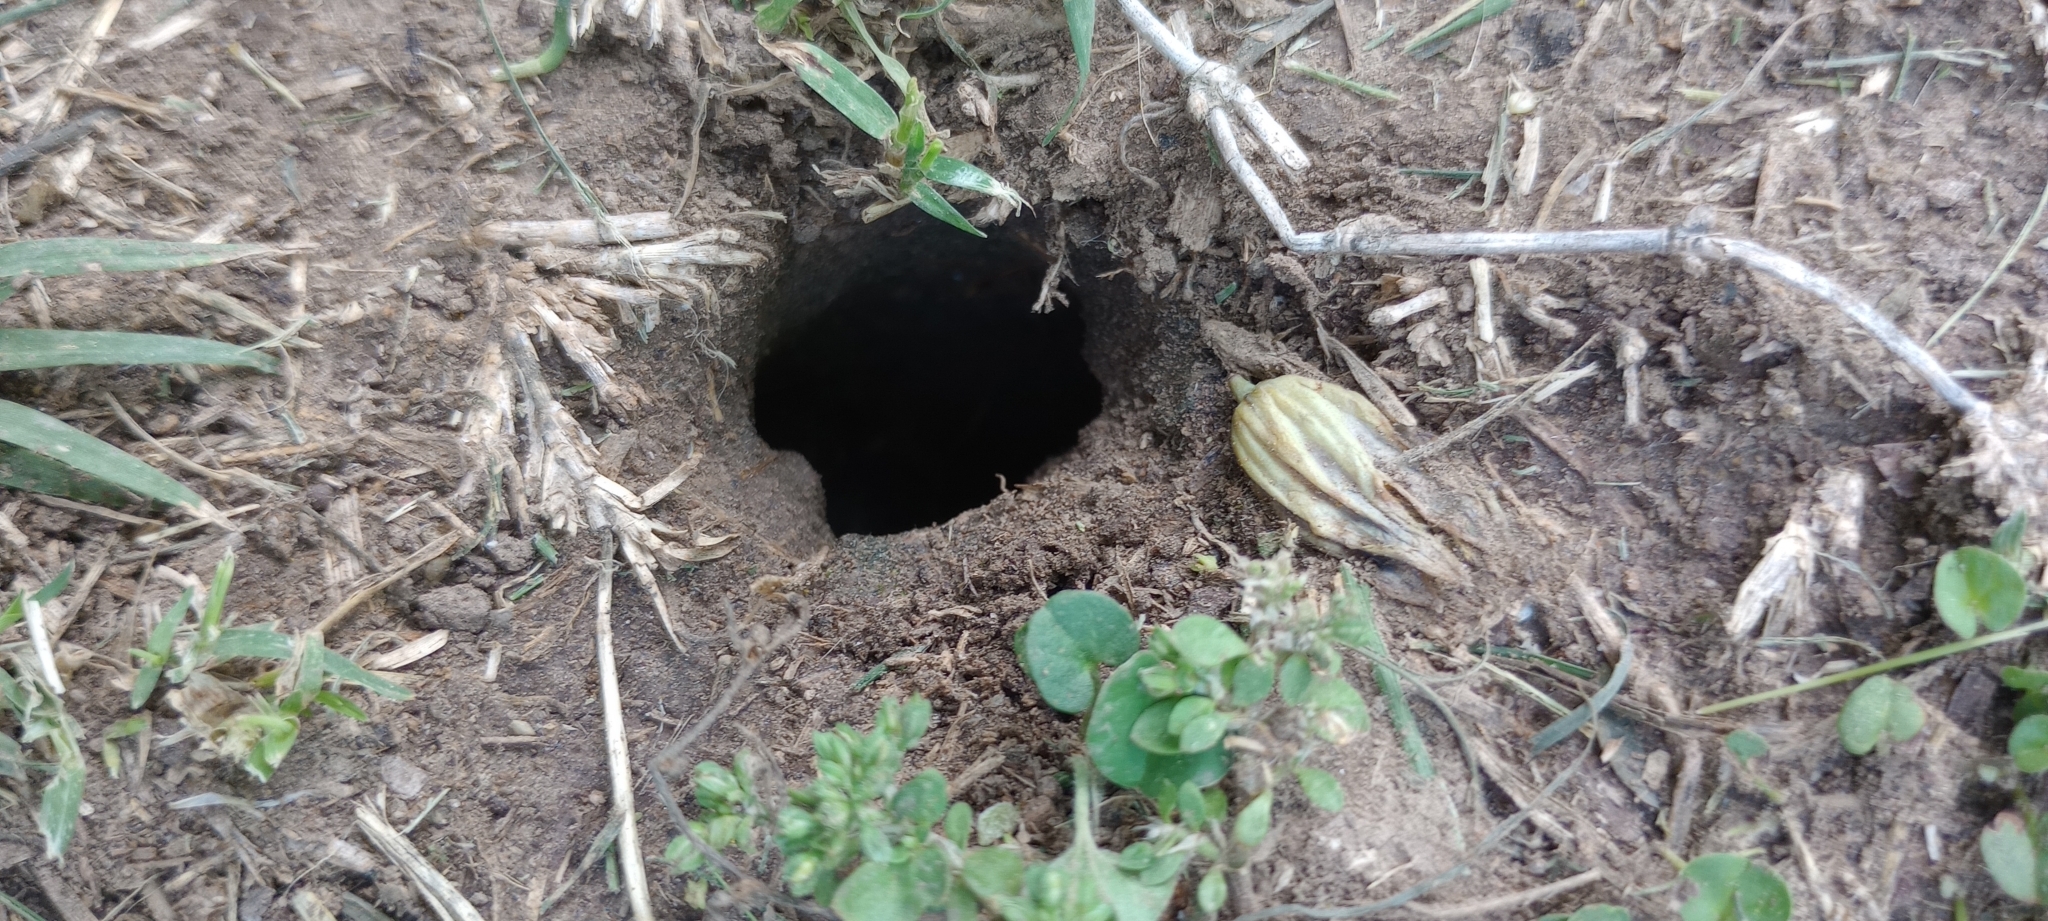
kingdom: Animalia
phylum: Chordata
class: Amphibia
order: Anura
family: Bufonidae
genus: Rhinella
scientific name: Rhinella dorbignyi
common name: D´orbigny’s toad
